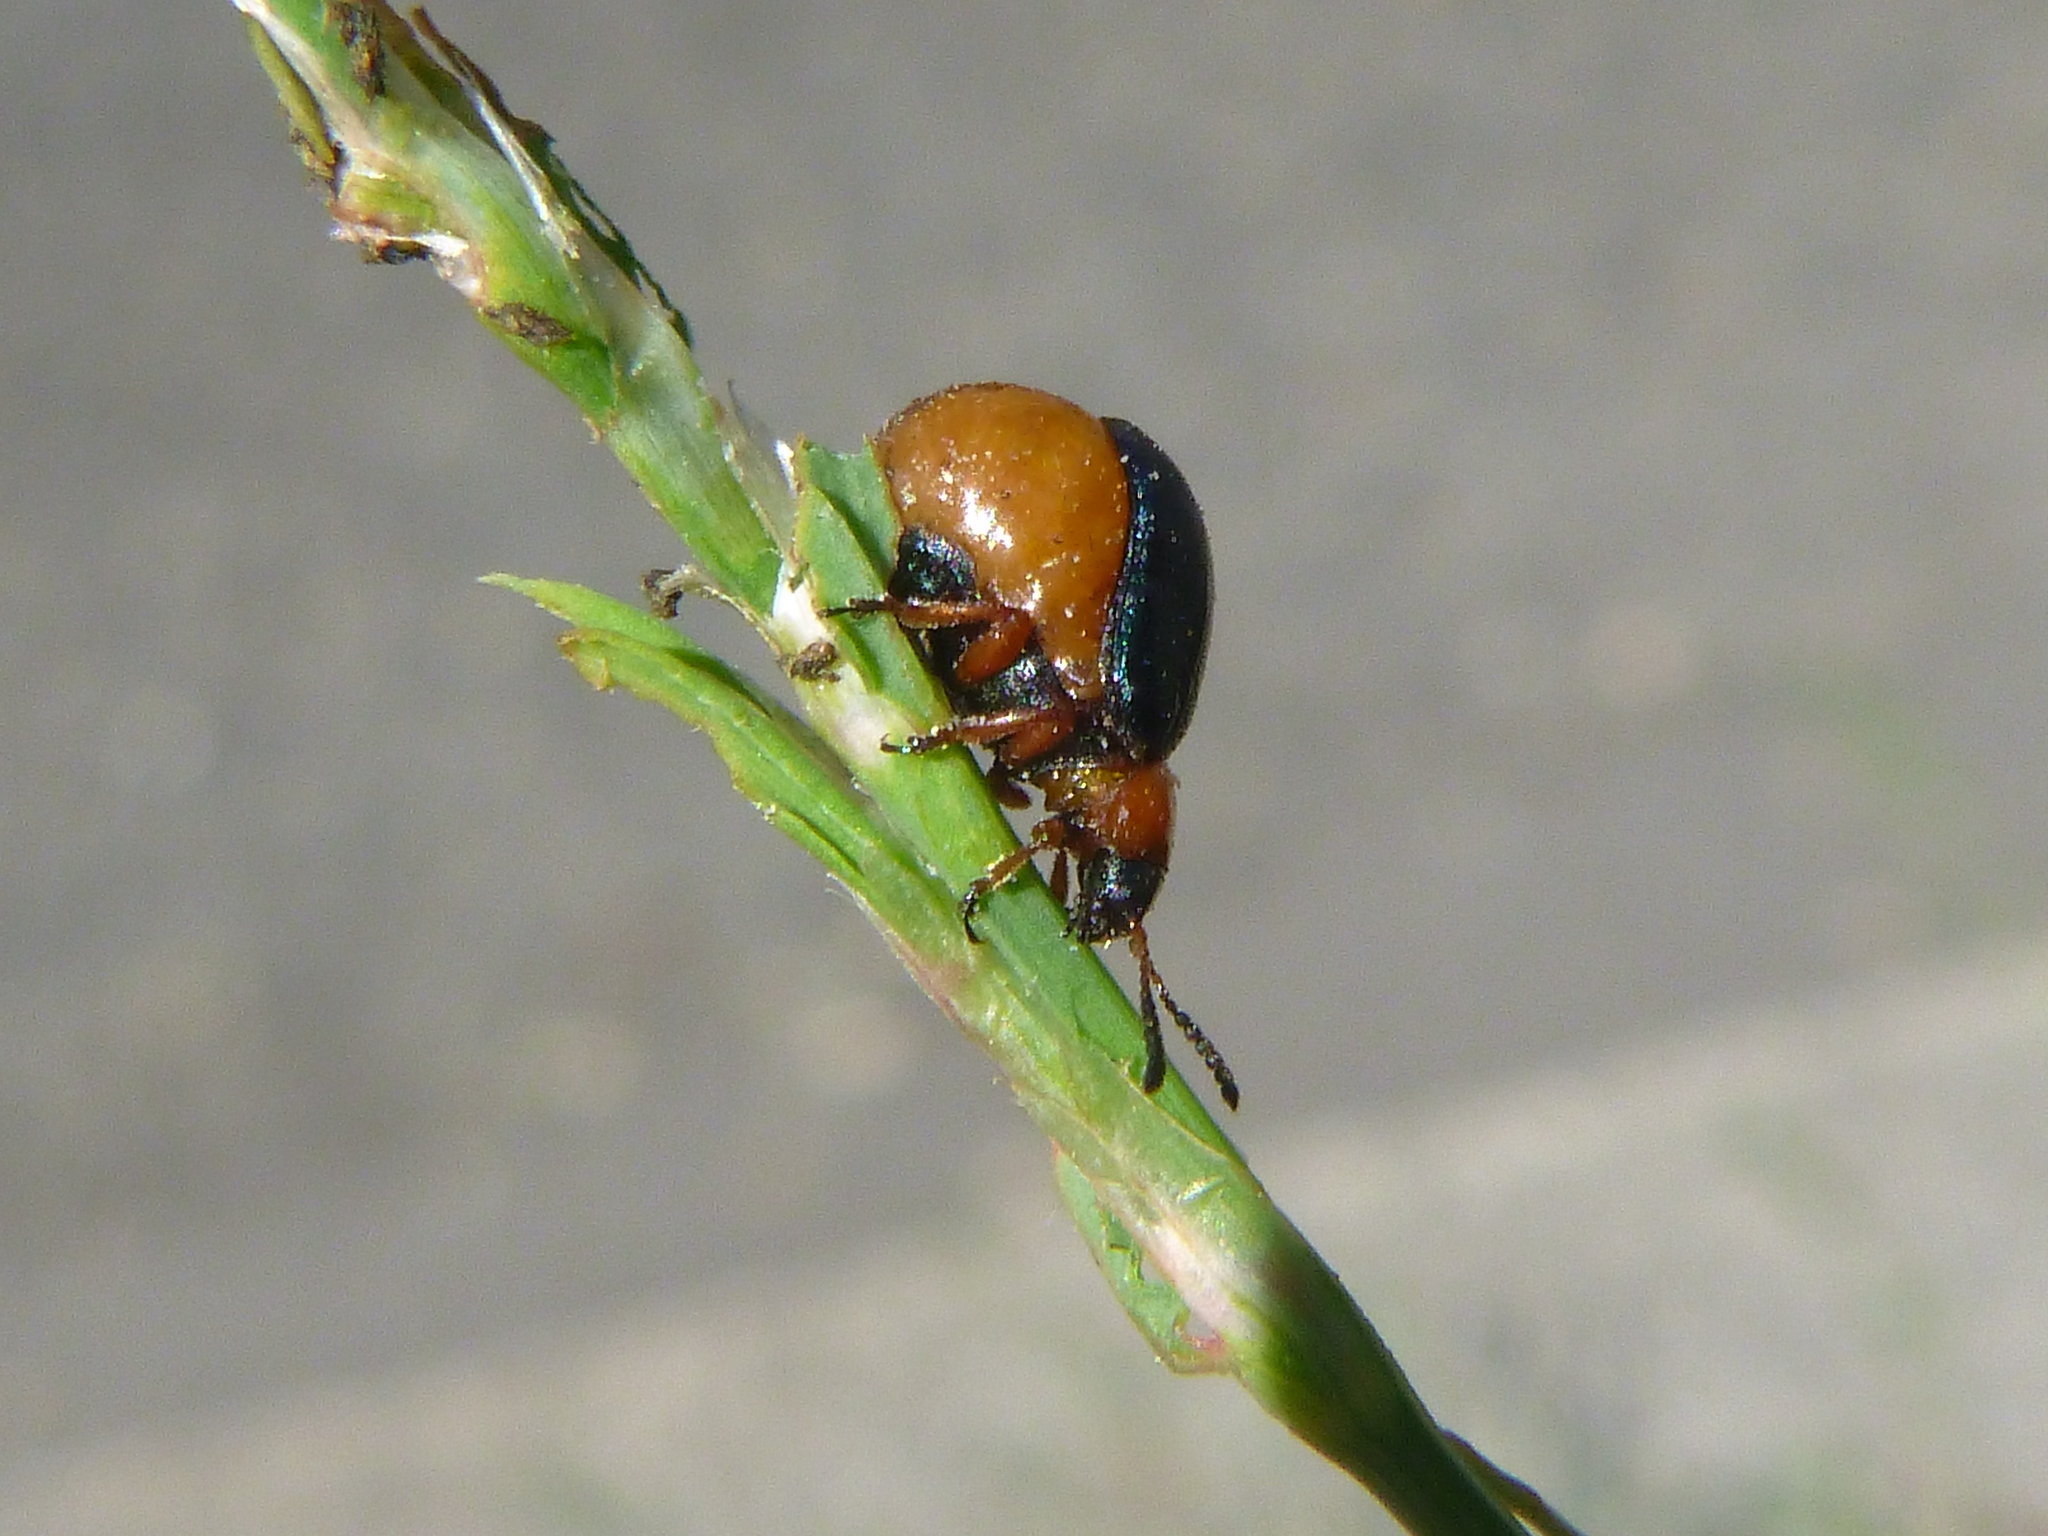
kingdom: Animalia
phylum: Arthropoda
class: Insecta
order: Coleoptera
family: Chrysomelidae
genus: Gastrophysa
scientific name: Gastrophysa polygoni
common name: Knotweed leaf beetle
